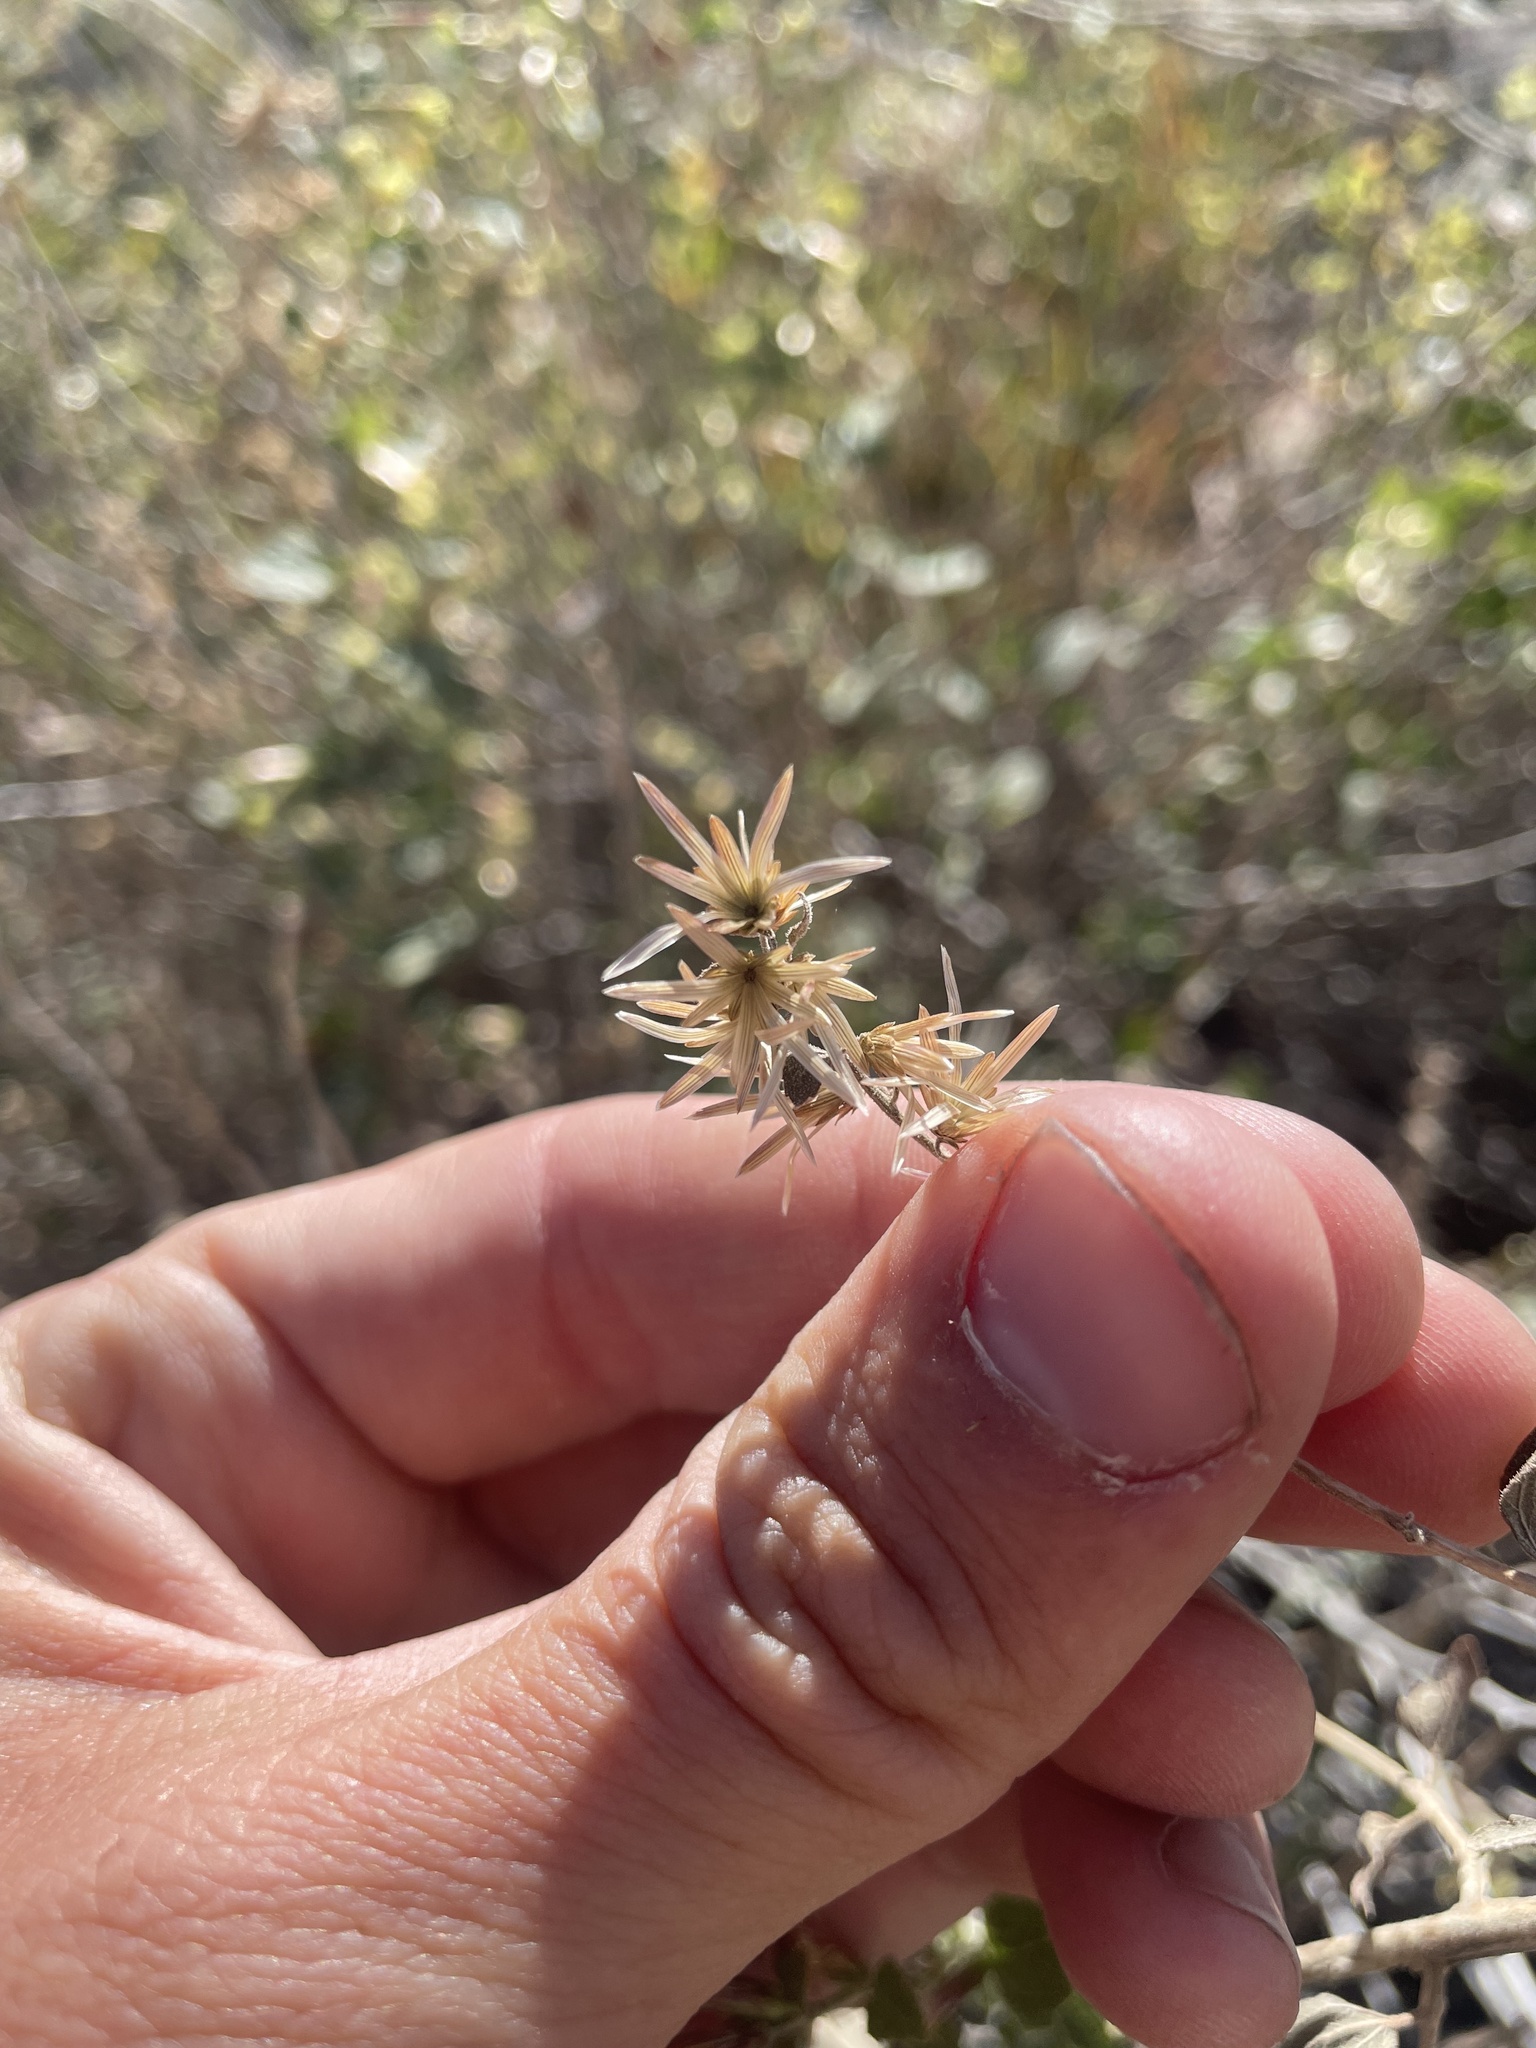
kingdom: Plantae
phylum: Tracheophyta
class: Magnoliopsida
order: Asterales
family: Asteraceae
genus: Brickellia
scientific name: Brickellia californica
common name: California brickellbush
